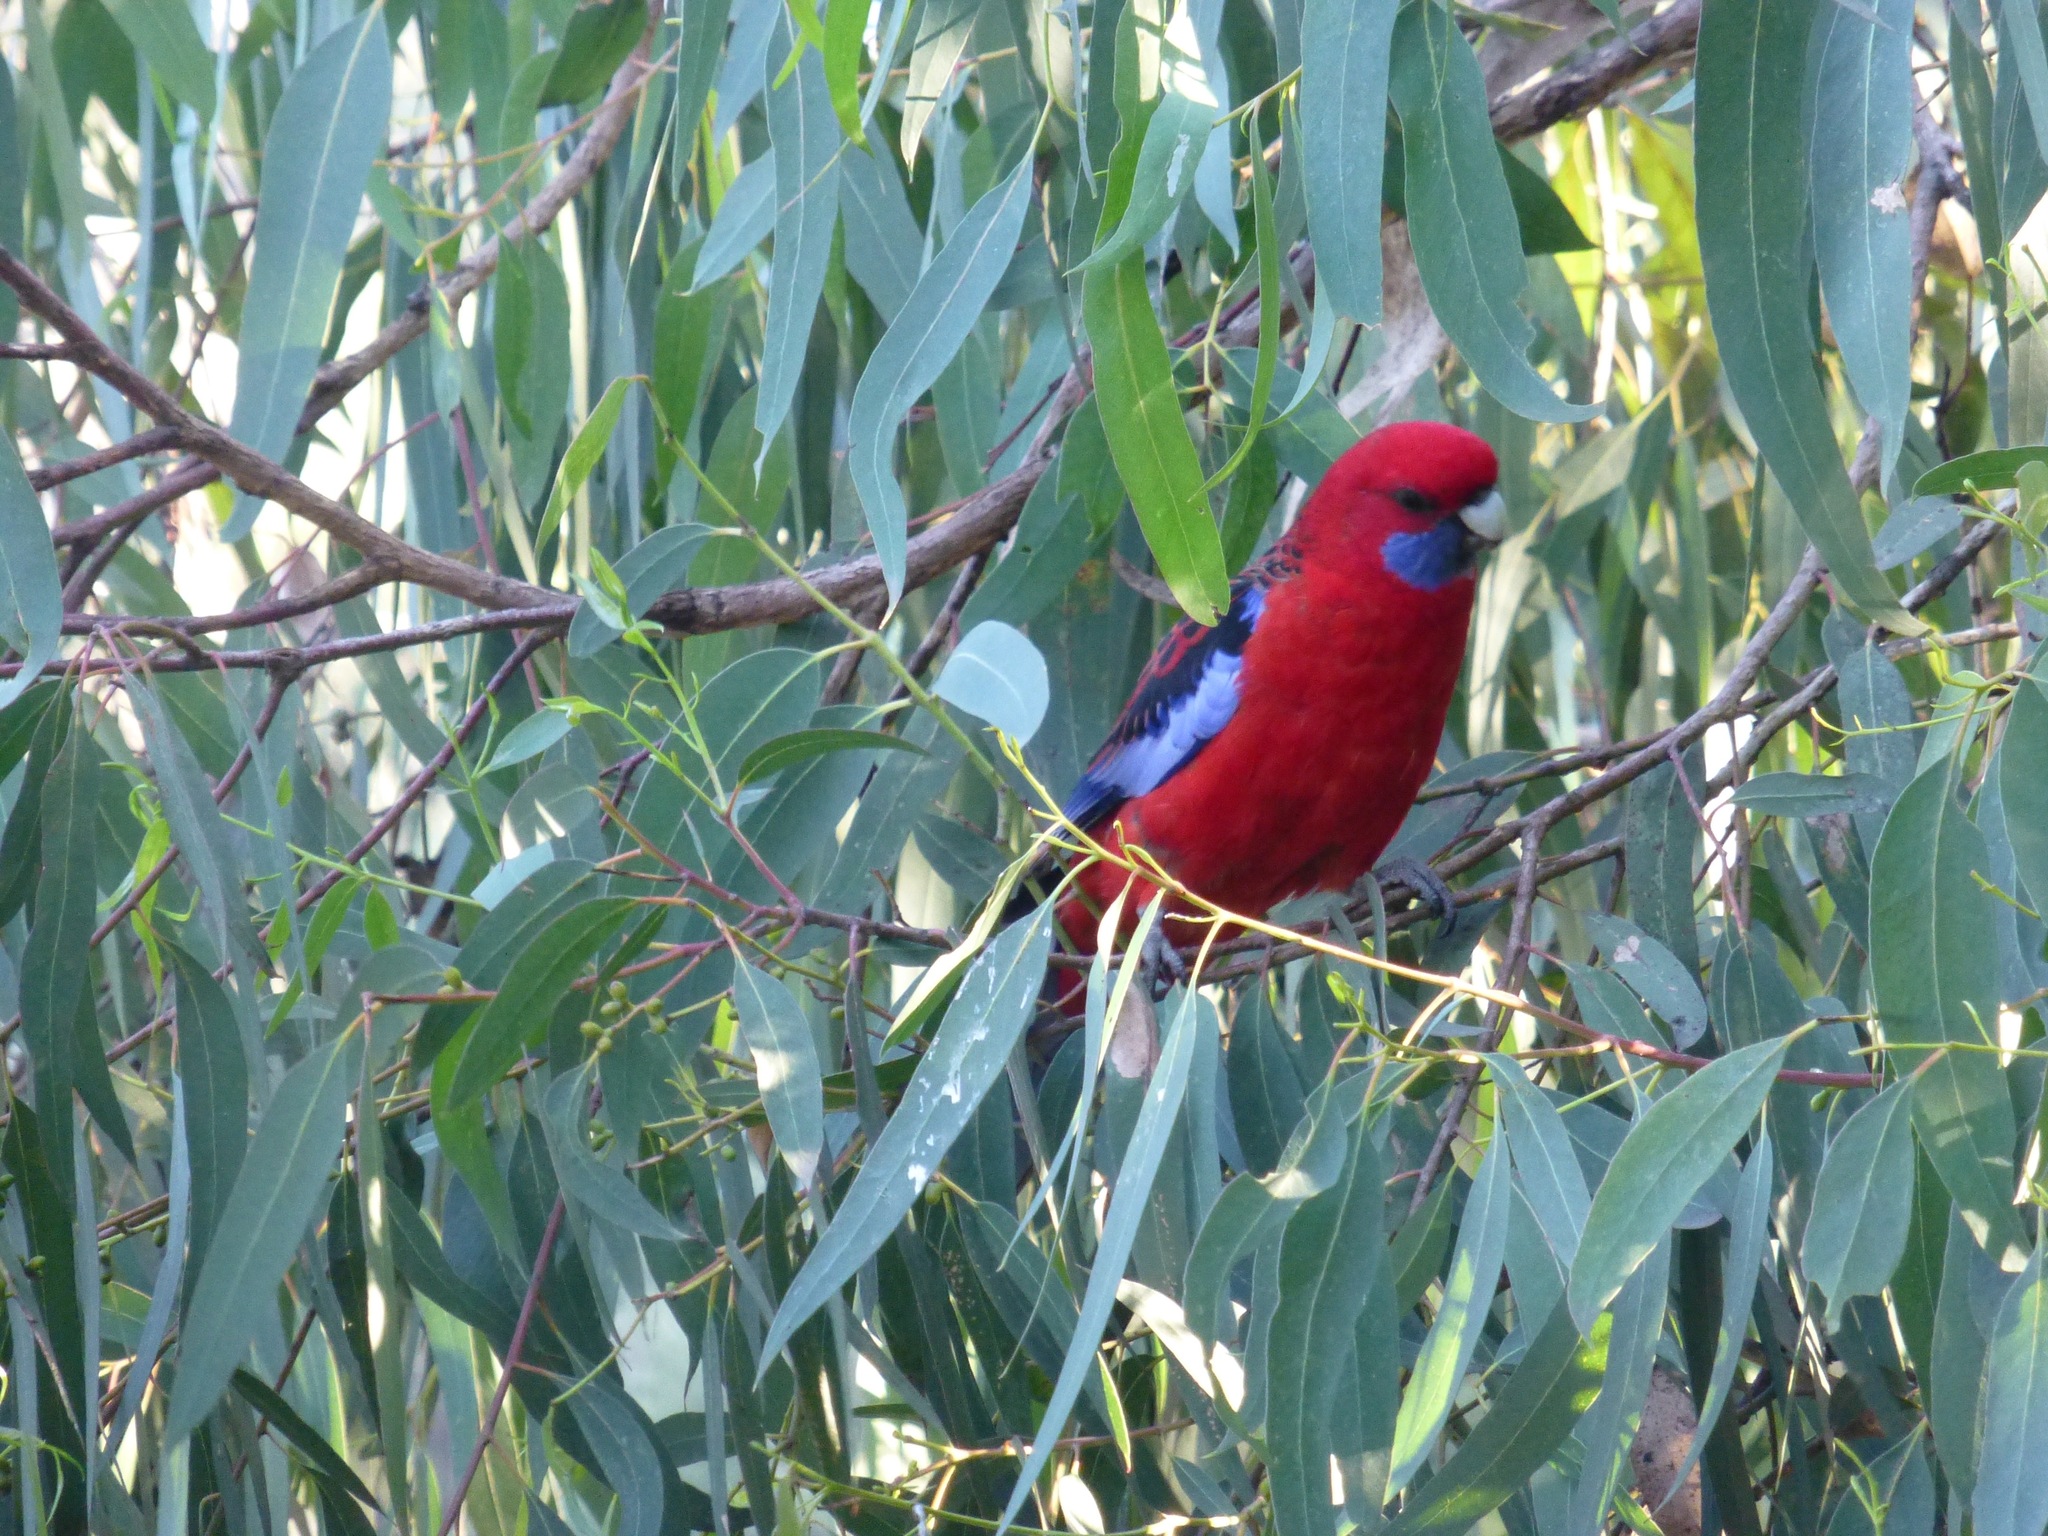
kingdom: Animalia
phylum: Chordata
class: Aves
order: Psittaciformes
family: Psittacidae
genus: Platycercus
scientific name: Platycercus elegans
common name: Crimson rosella
